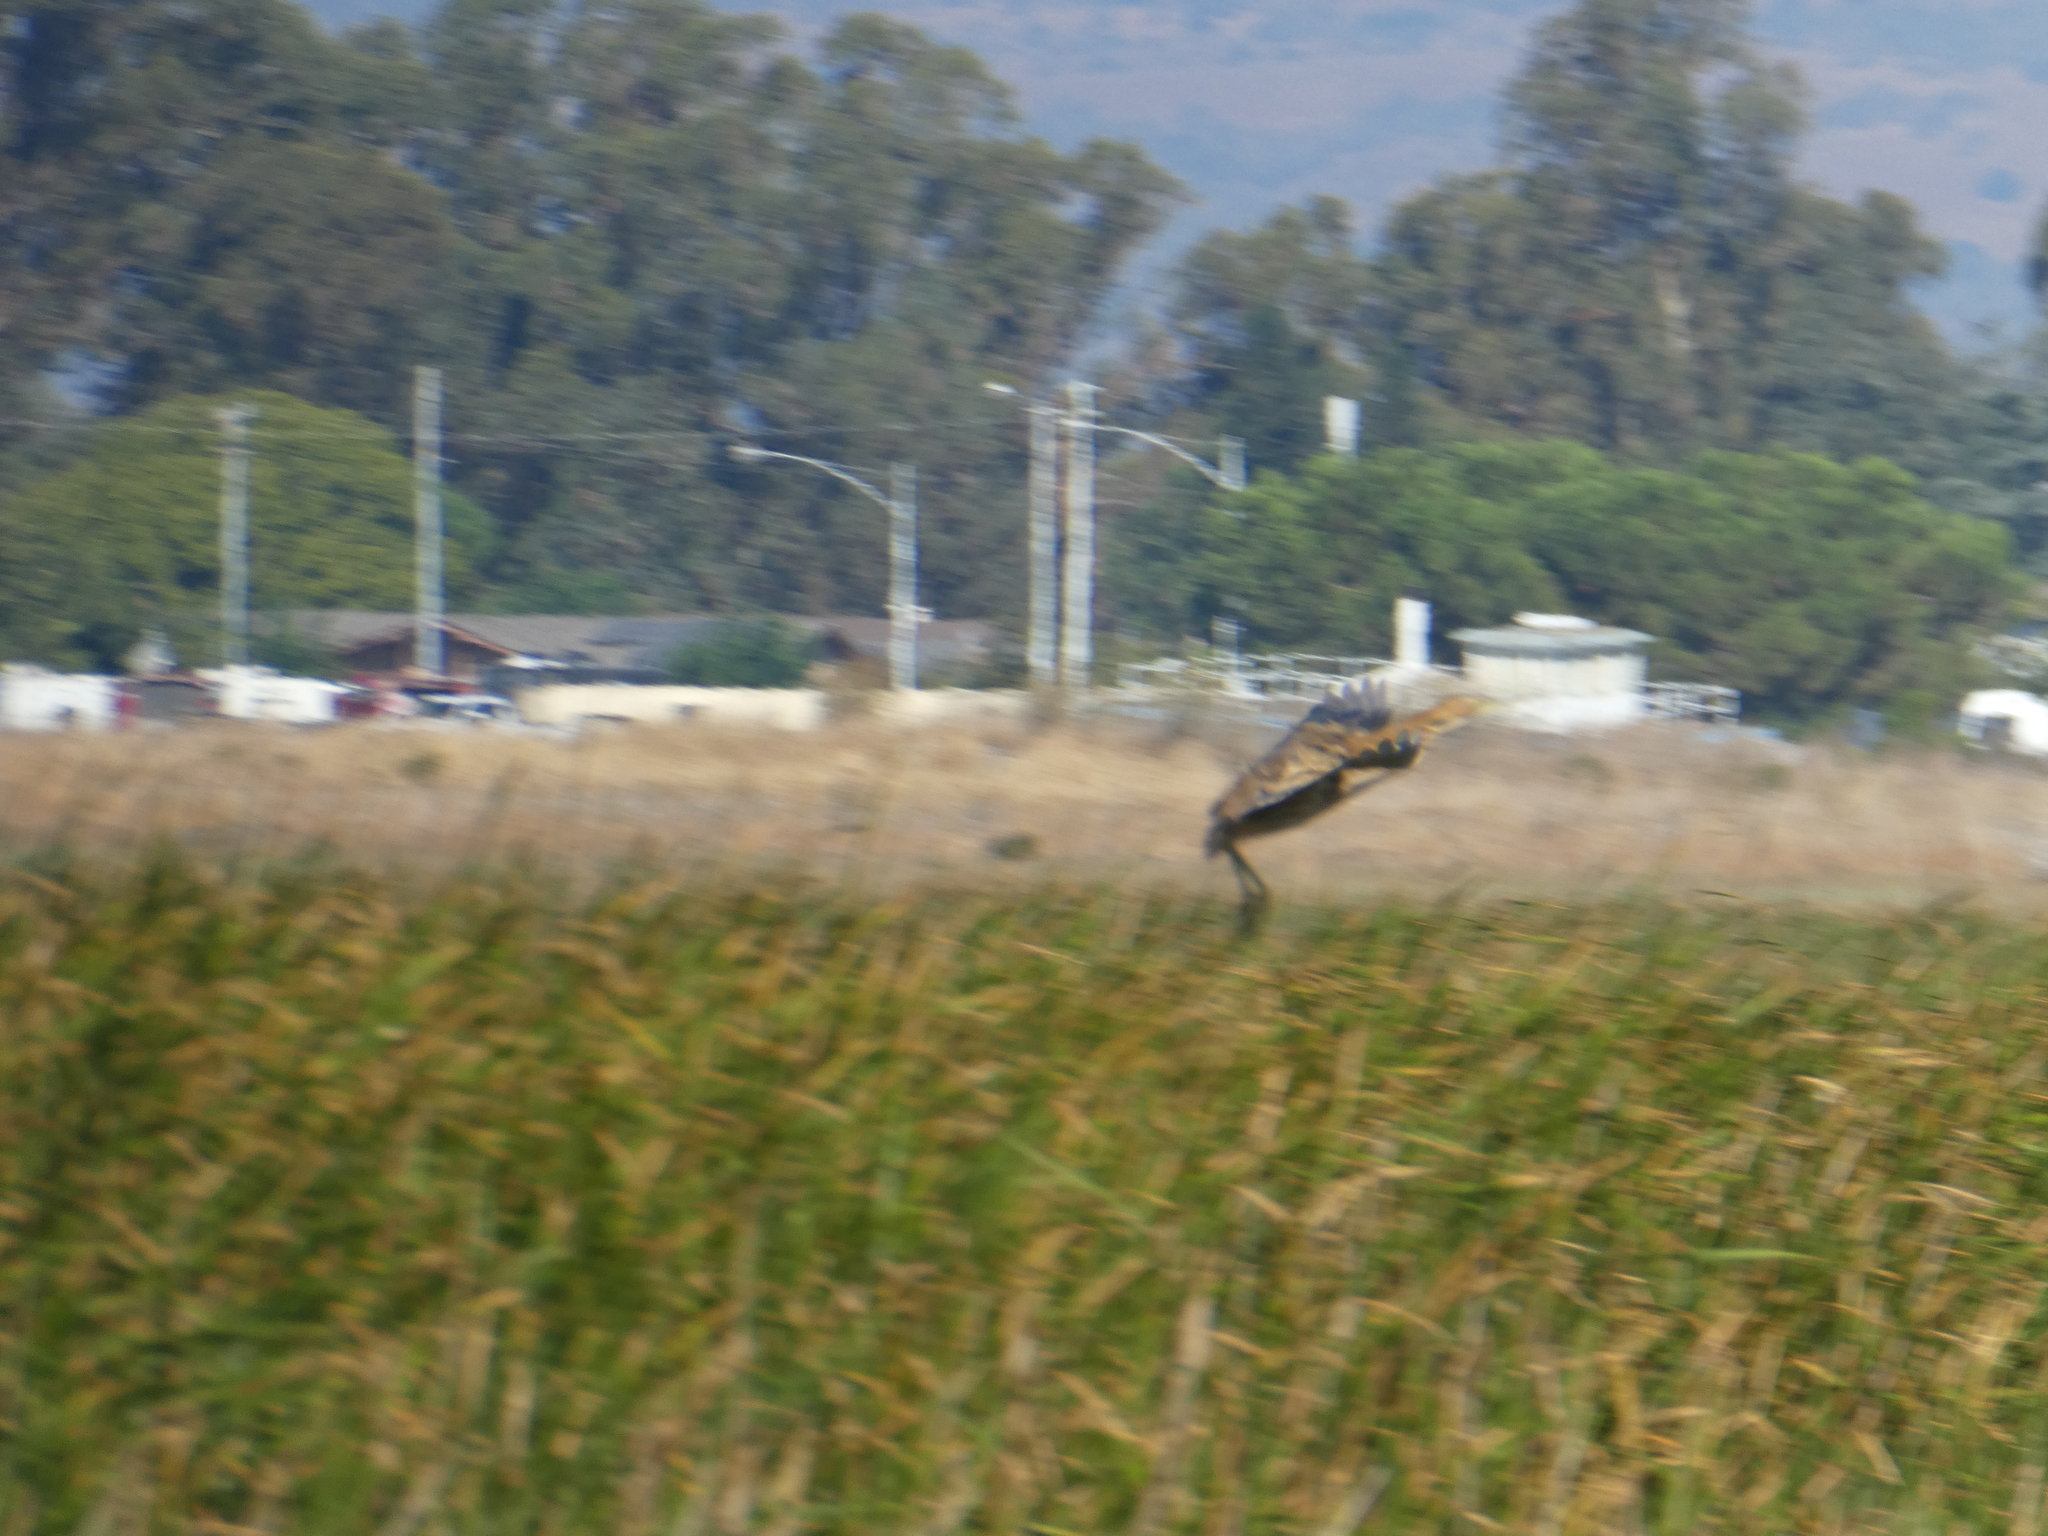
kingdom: Animalia
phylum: Chordata
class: Aves
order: Pelecaniformes
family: Ardeidae
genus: Botaurus
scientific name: Botaurus lentiginosus
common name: American bittern
